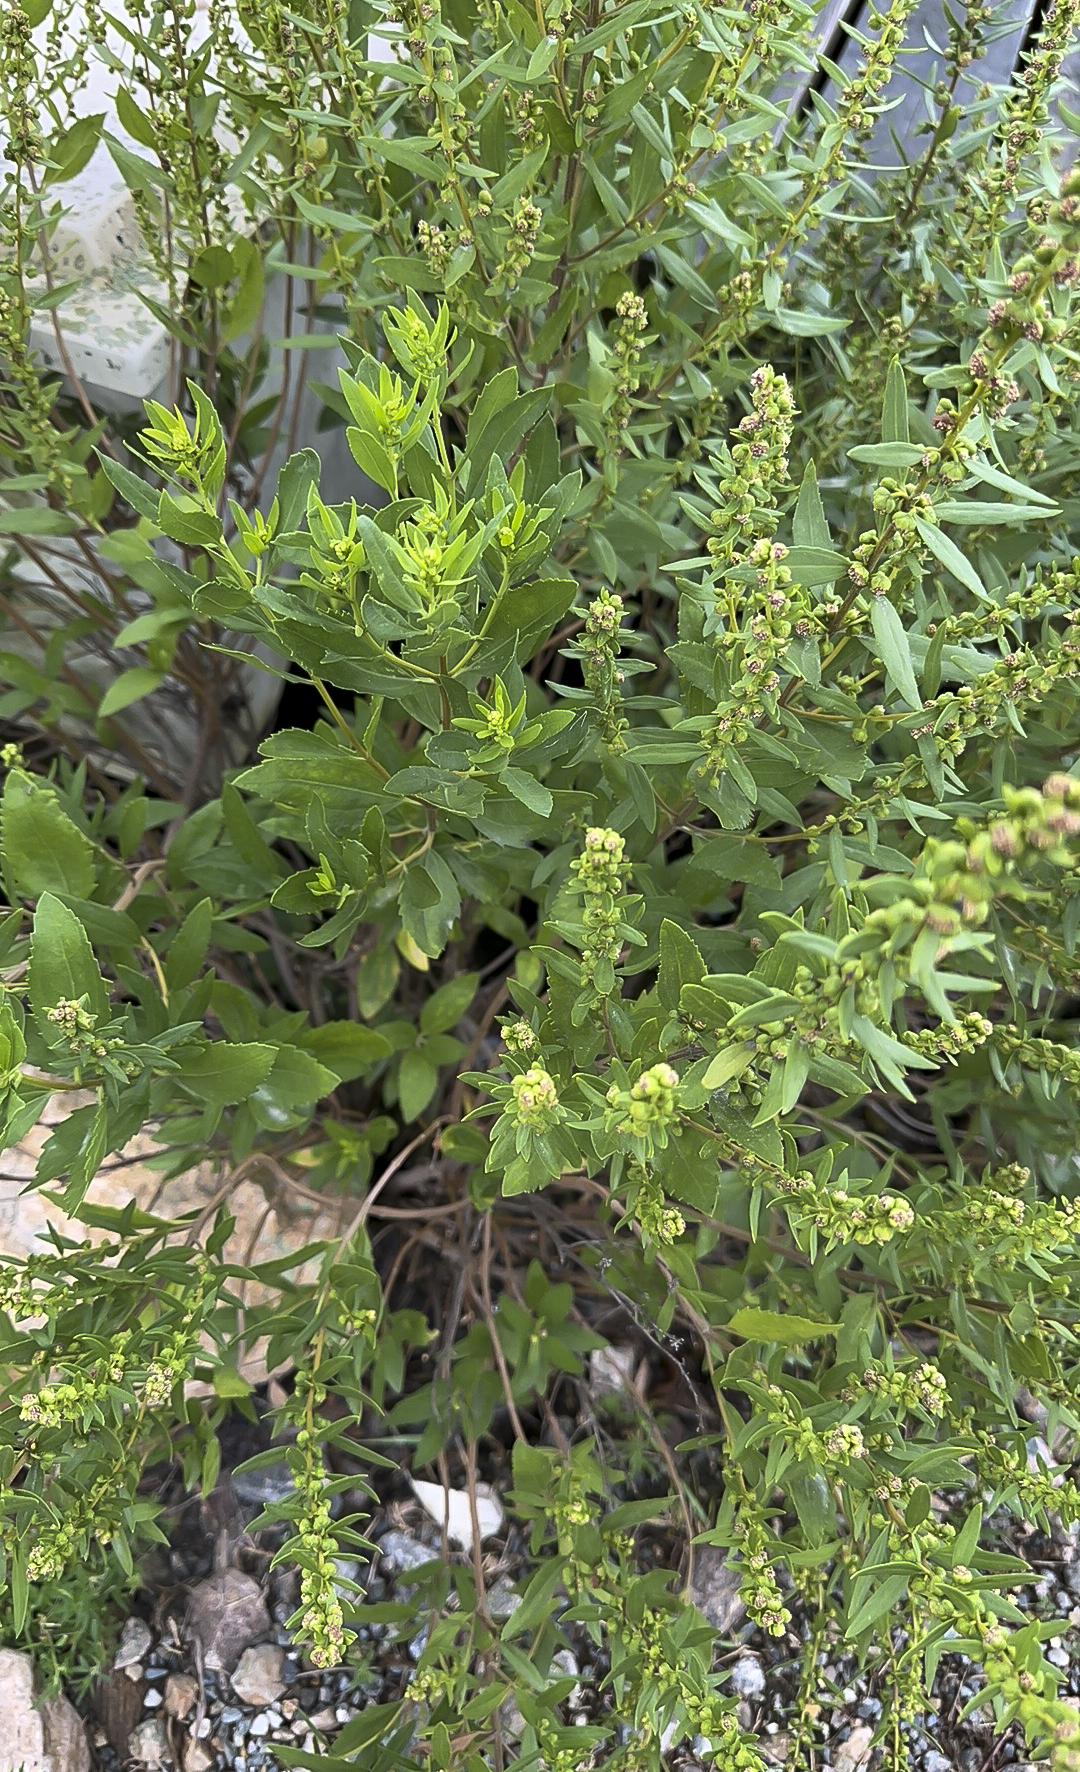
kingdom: Plantae
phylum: Tracheophyta
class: Magnoliopsida
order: Asterales
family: Asteraceae
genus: Iva
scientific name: Iva frutescens
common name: Big-leaved marsh-elder
